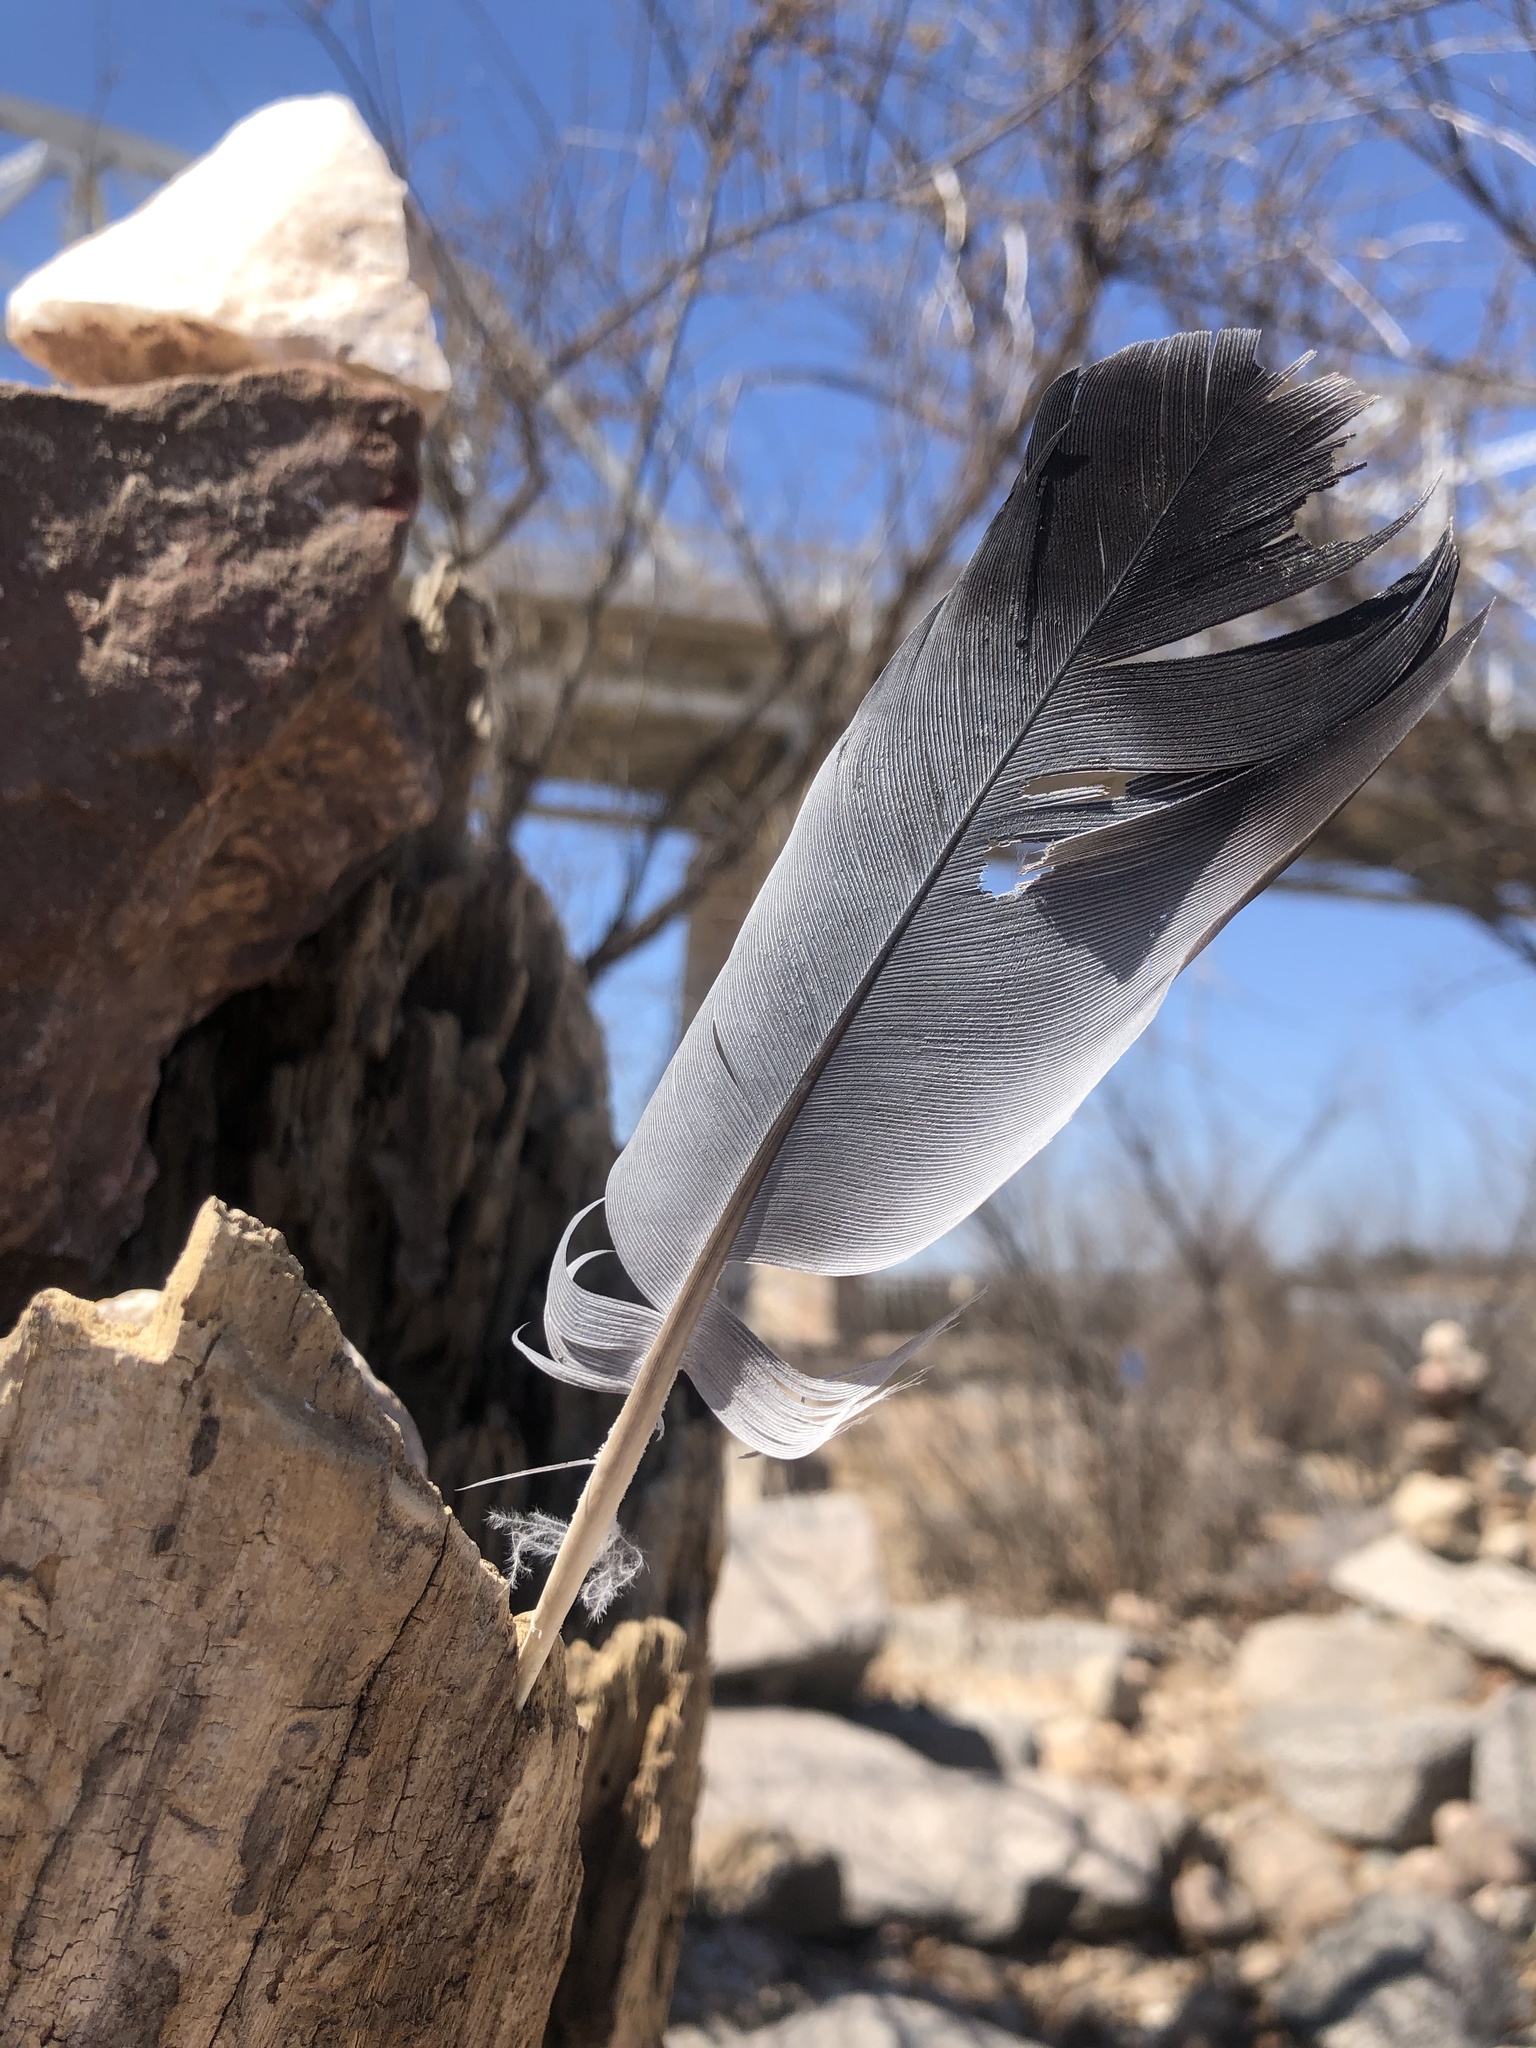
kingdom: Animalia
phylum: Chordata
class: Aves
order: Columbiformes
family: Columbidae
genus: Columba
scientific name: Columba livia
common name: Rock pigeon
